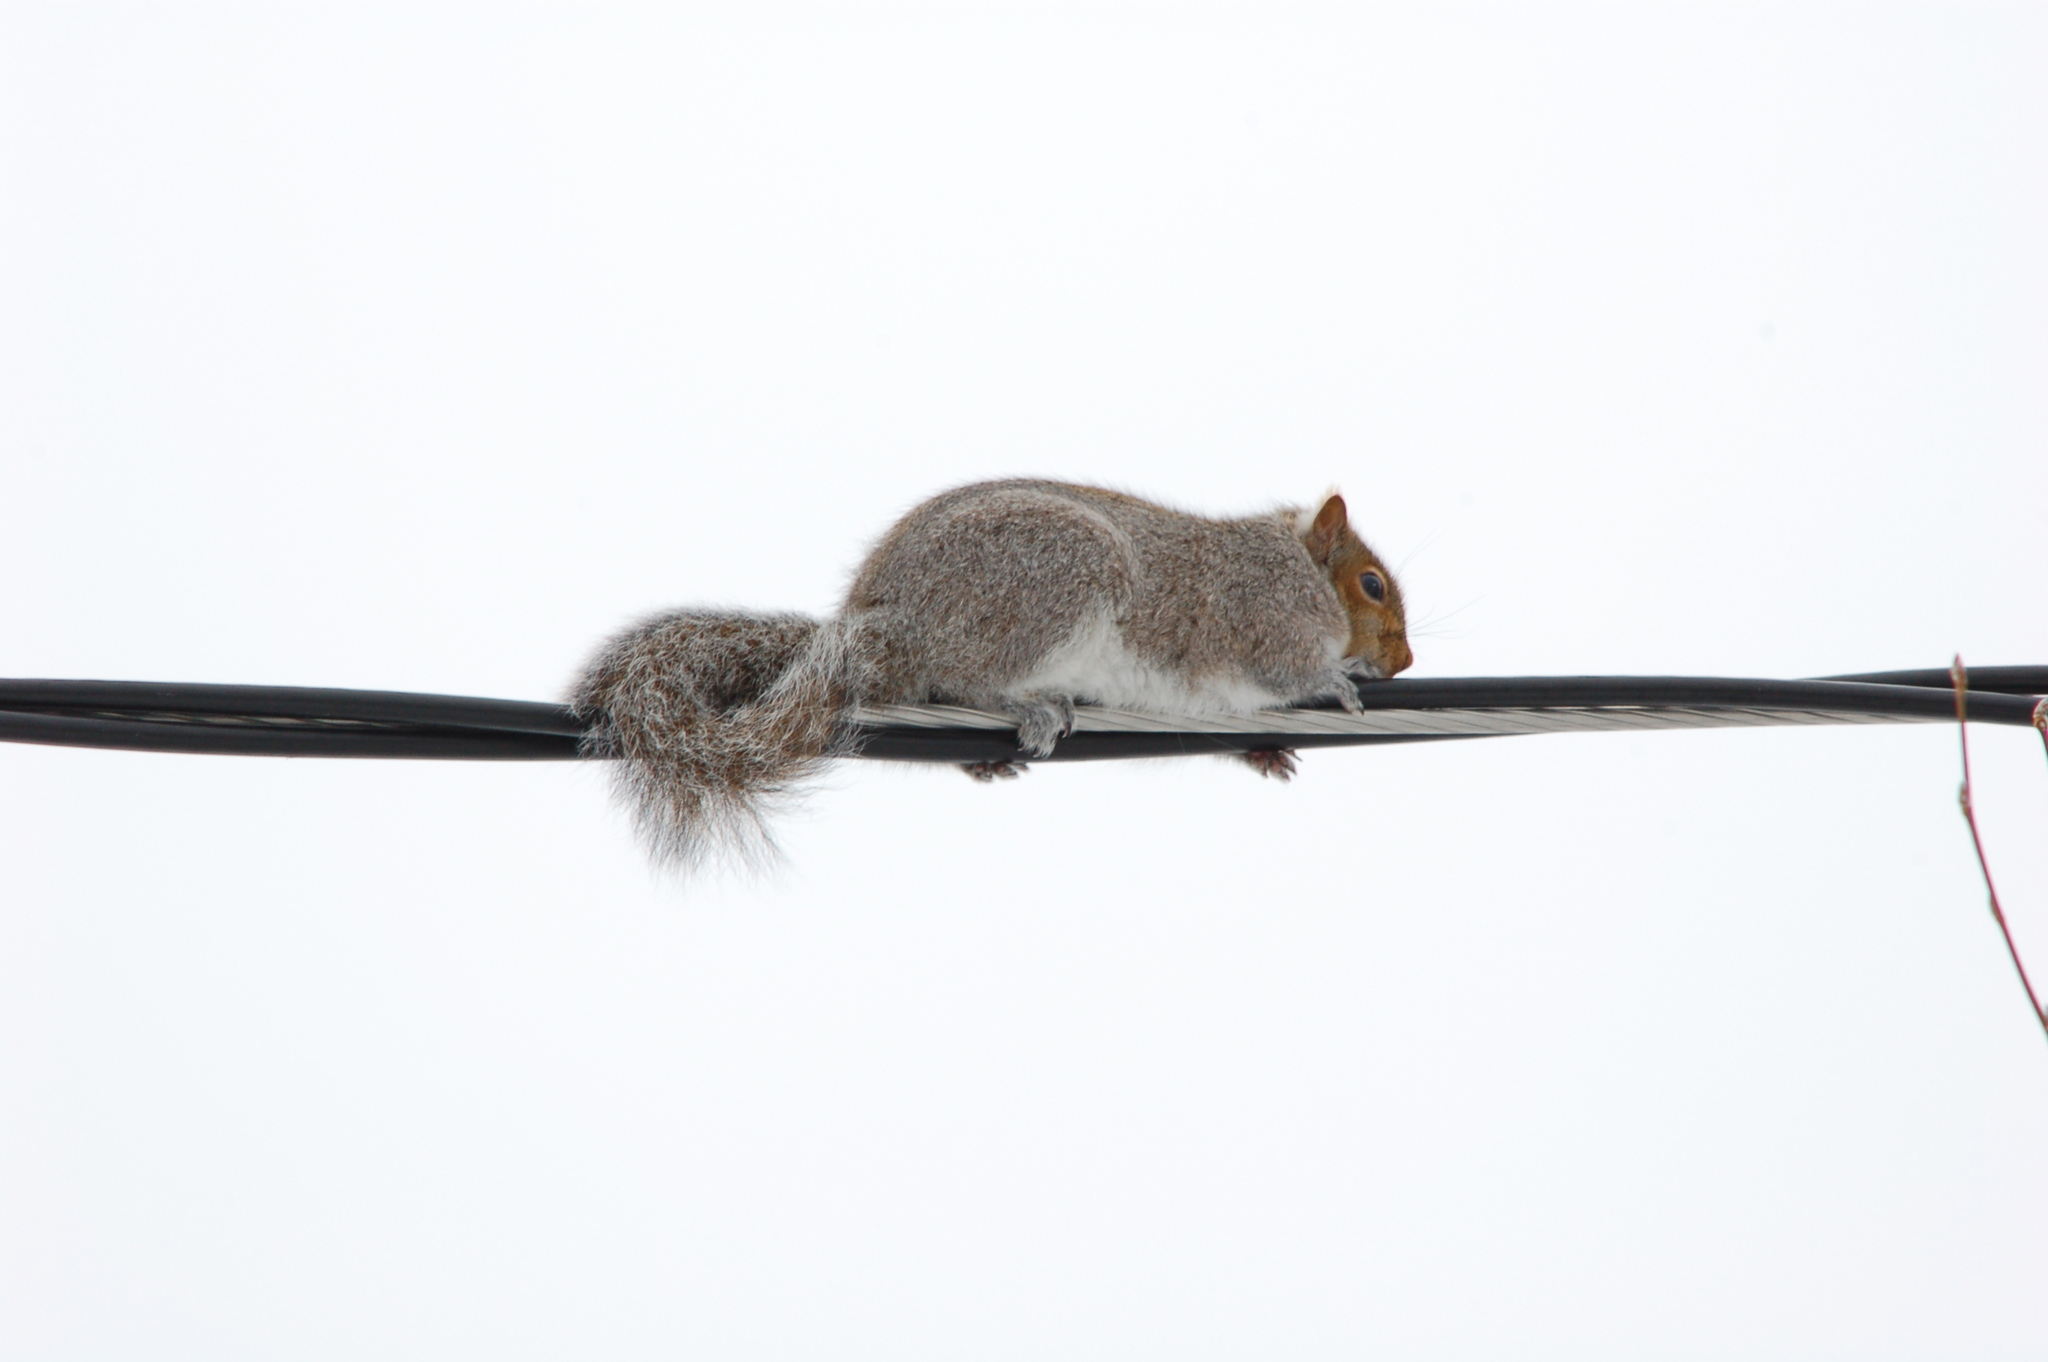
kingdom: Animalia
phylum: Chordata
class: Mammalia
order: Rodentia
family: Sciuridae
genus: Sciurus
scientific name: Sciurus carolinensis
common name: Eastern gray squirrel
